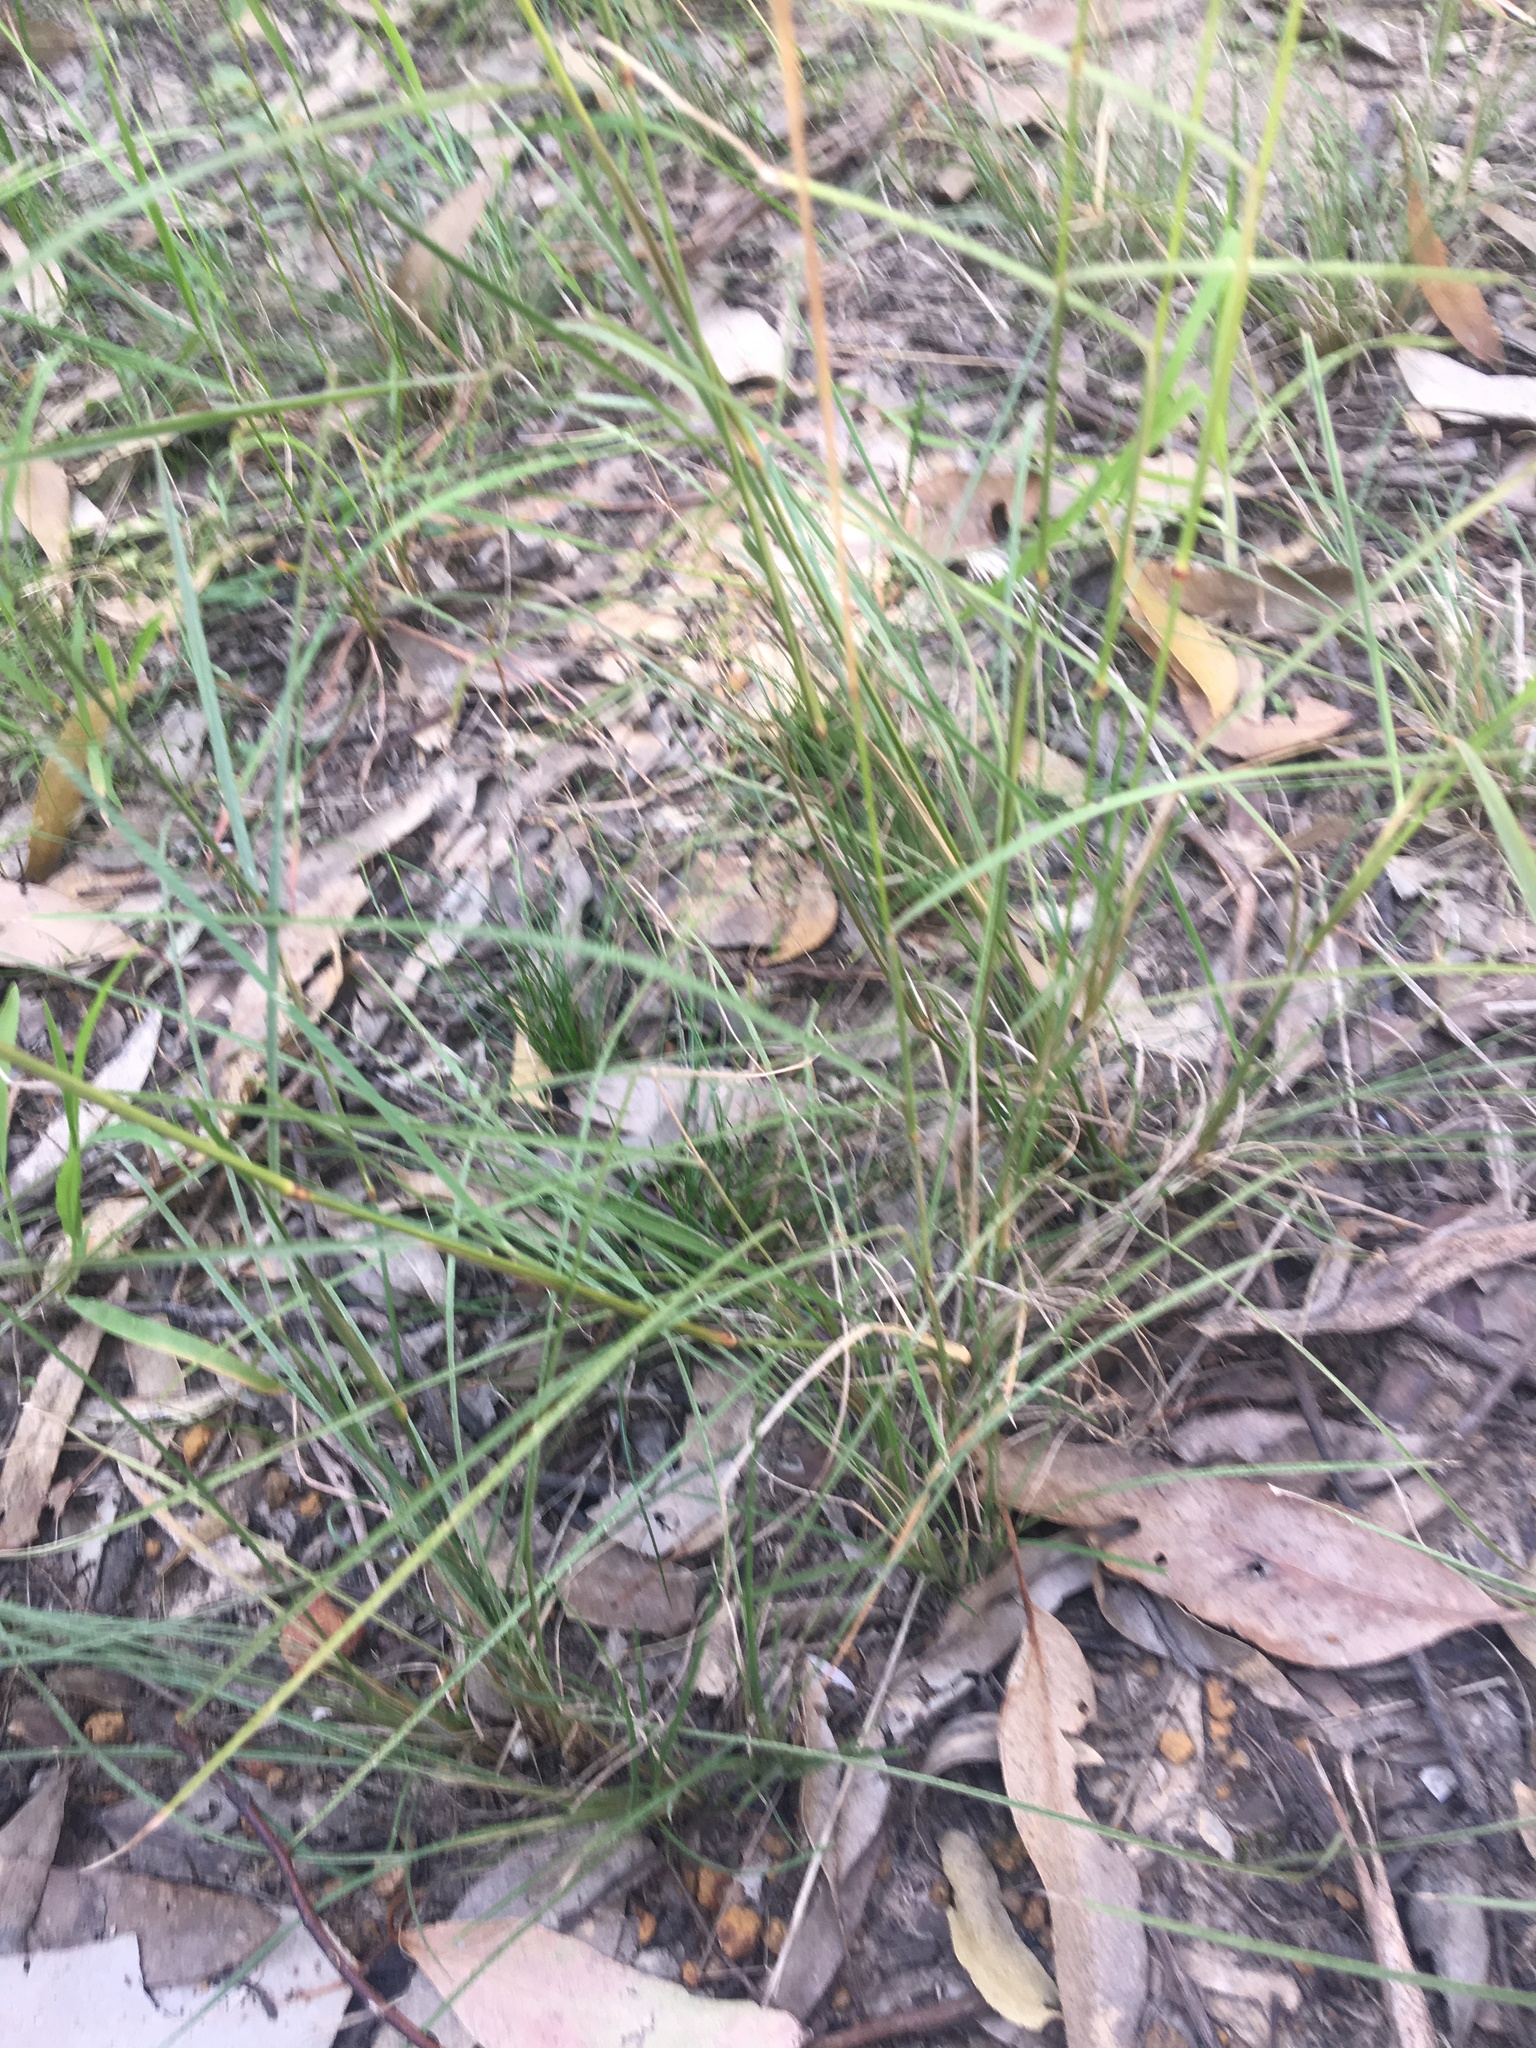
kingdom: Plantae
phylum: Tracheophyta
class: Liliopsida
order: Poales
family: Poaceae
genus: Chloris
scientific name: Chloris ventricosa
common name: Australian windmill grass
